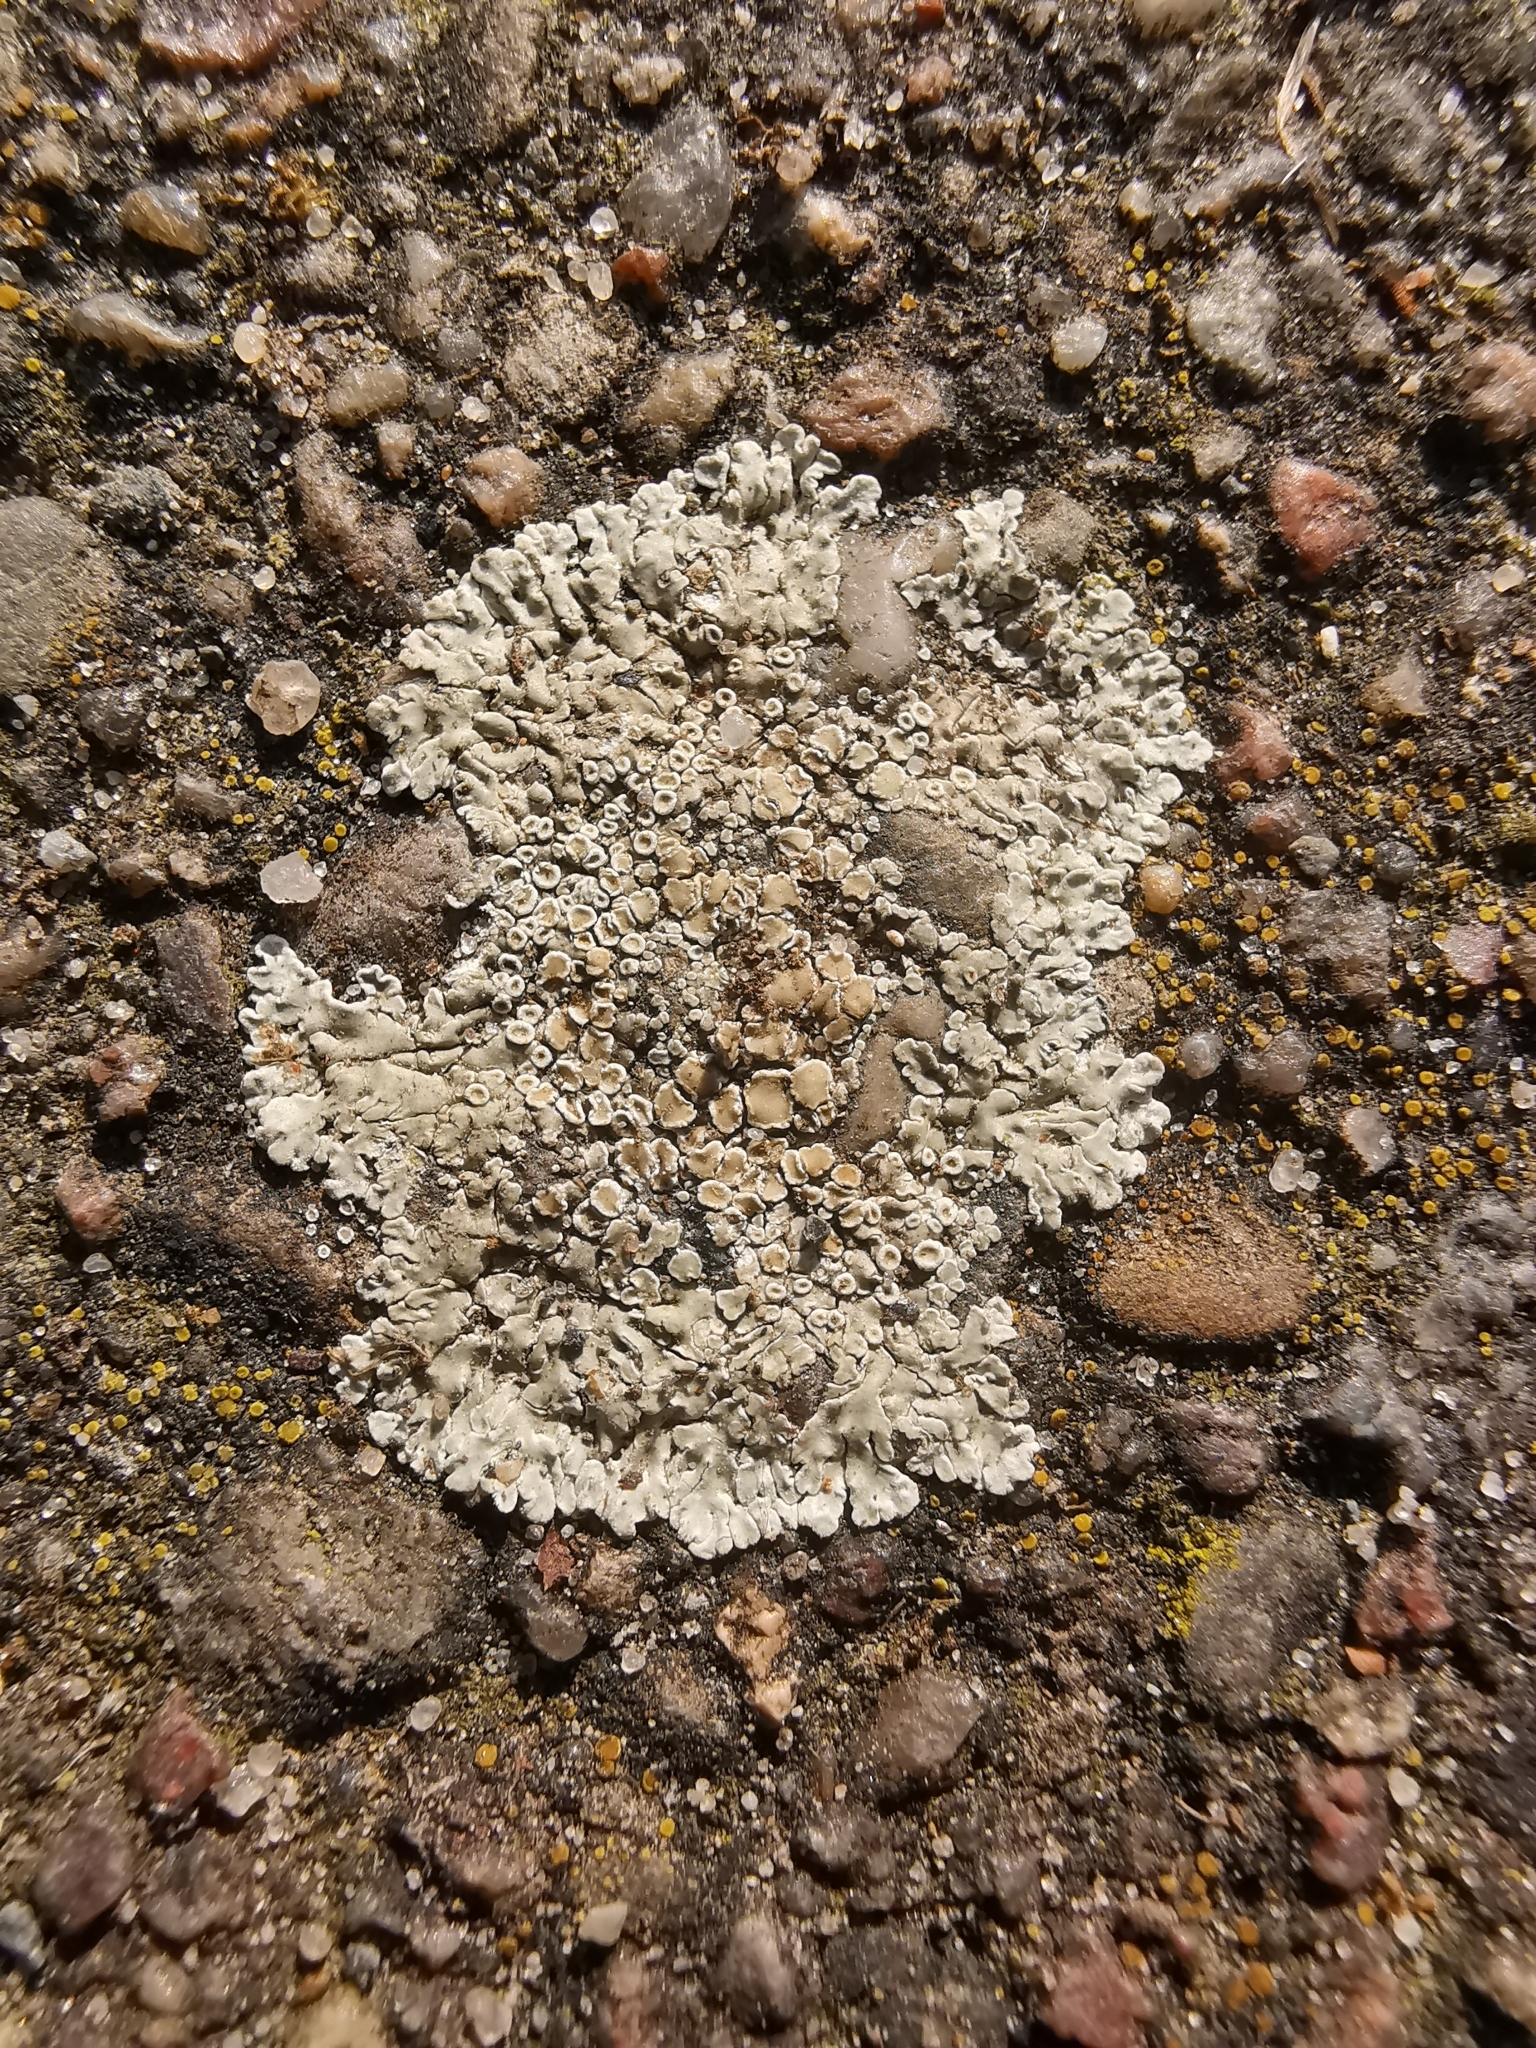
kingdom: Fungi
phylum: Ascomycota
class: Lecanoromycetes
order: Lecanorales
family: Lecanoraceae
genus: Protoparmeliopsis
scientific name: Protoparmeliopsis muralis
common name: Stonewall rim lichen
